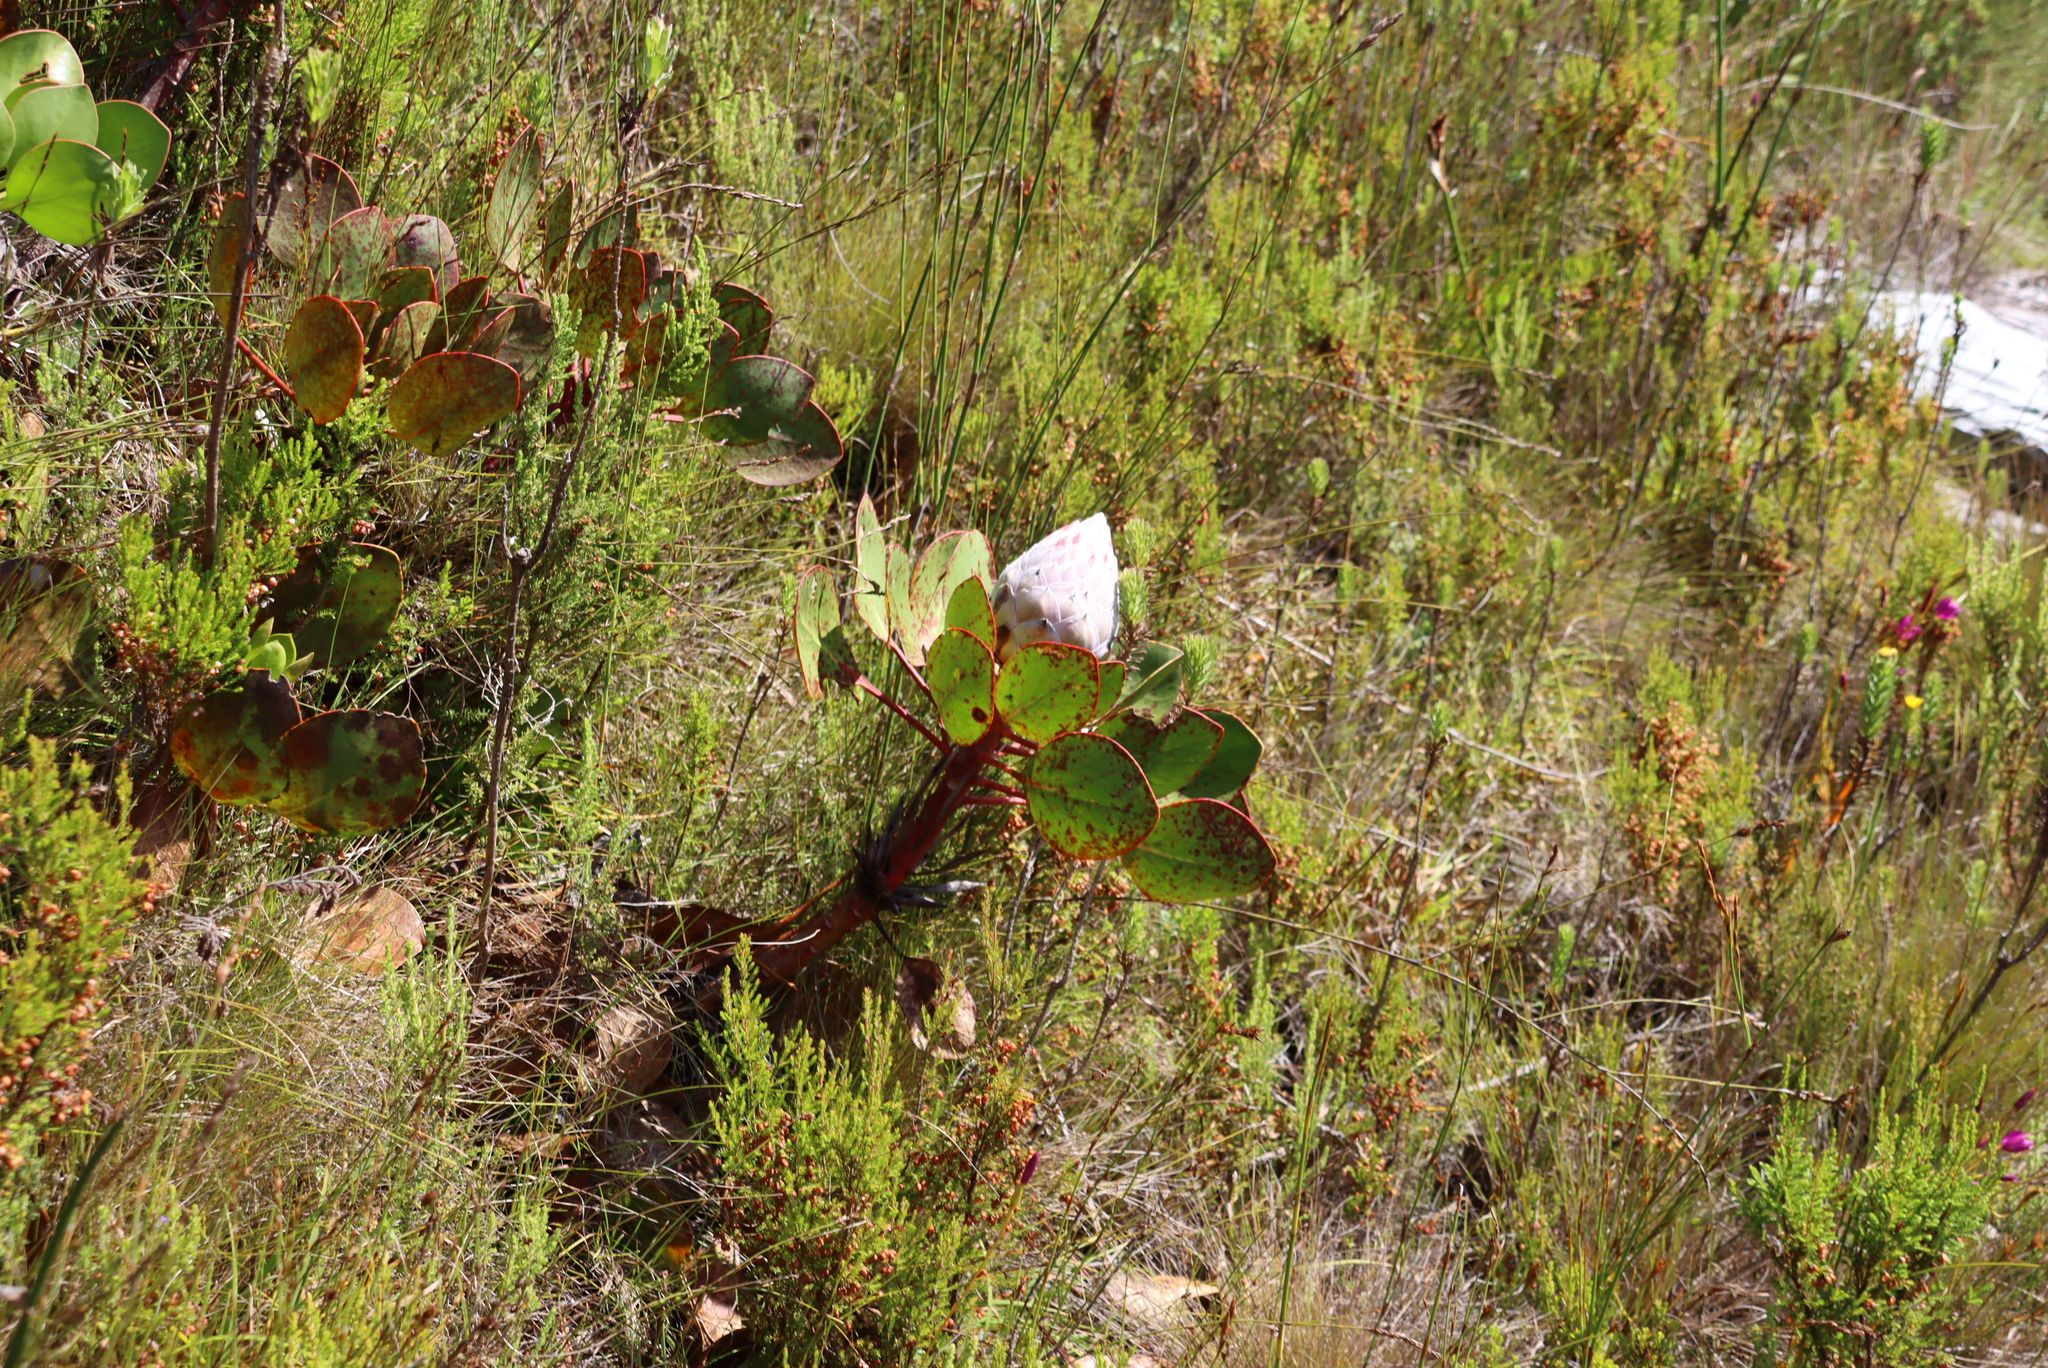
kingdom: Plantae
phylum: Tracheophyta
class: Magnoliopsida
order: Proteales
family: Proteaceae
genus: Protea
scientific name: Protea cynaroides
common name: King protea
